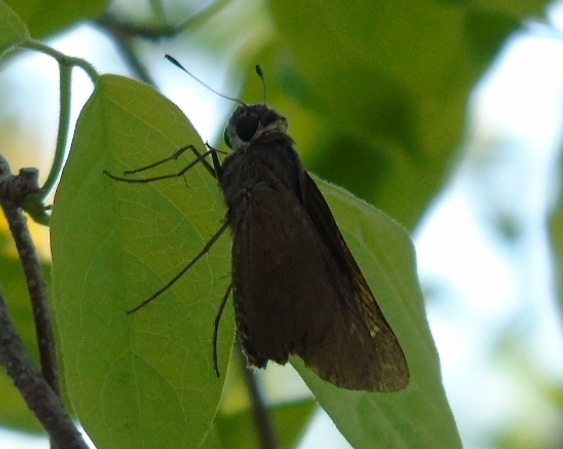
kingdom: Animalia
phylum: Arthropoda
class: Insecta
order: Lepidoptera
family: Hesperiidae
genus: Panoquina
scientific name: Panoquina ocola
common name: Ocola skipper
